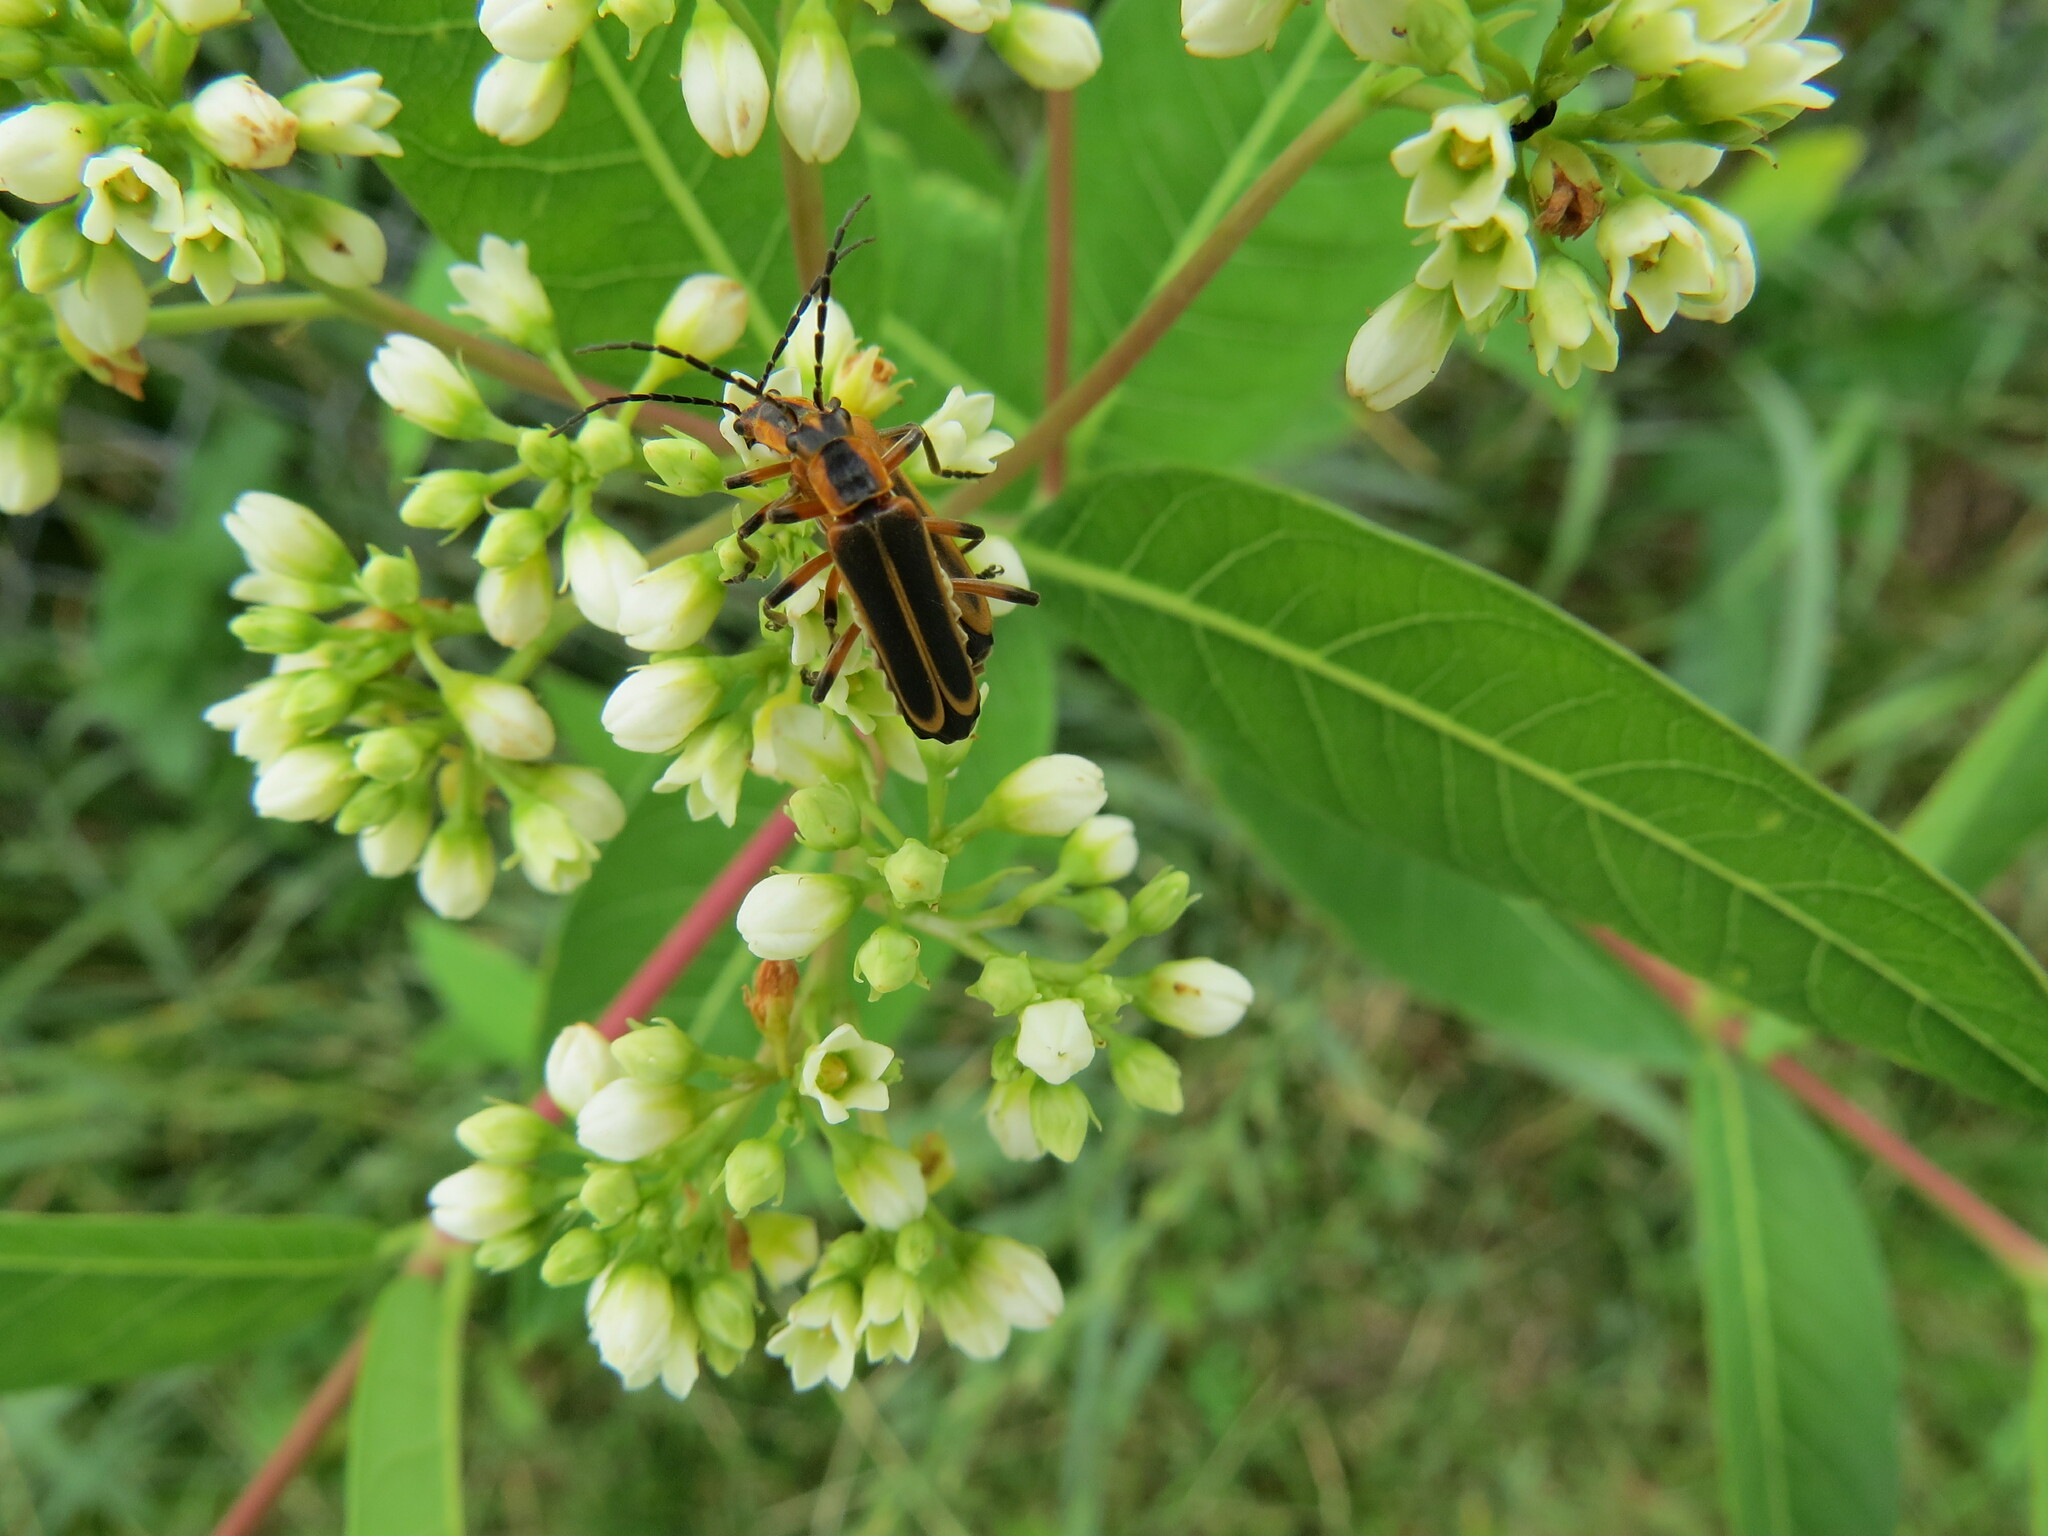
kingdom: Animalia
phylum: Arthropoda
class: Insecta
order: Coleoptera
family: Cantharidae
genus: Chauliognathus
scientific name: Chauliognathus marginatus
